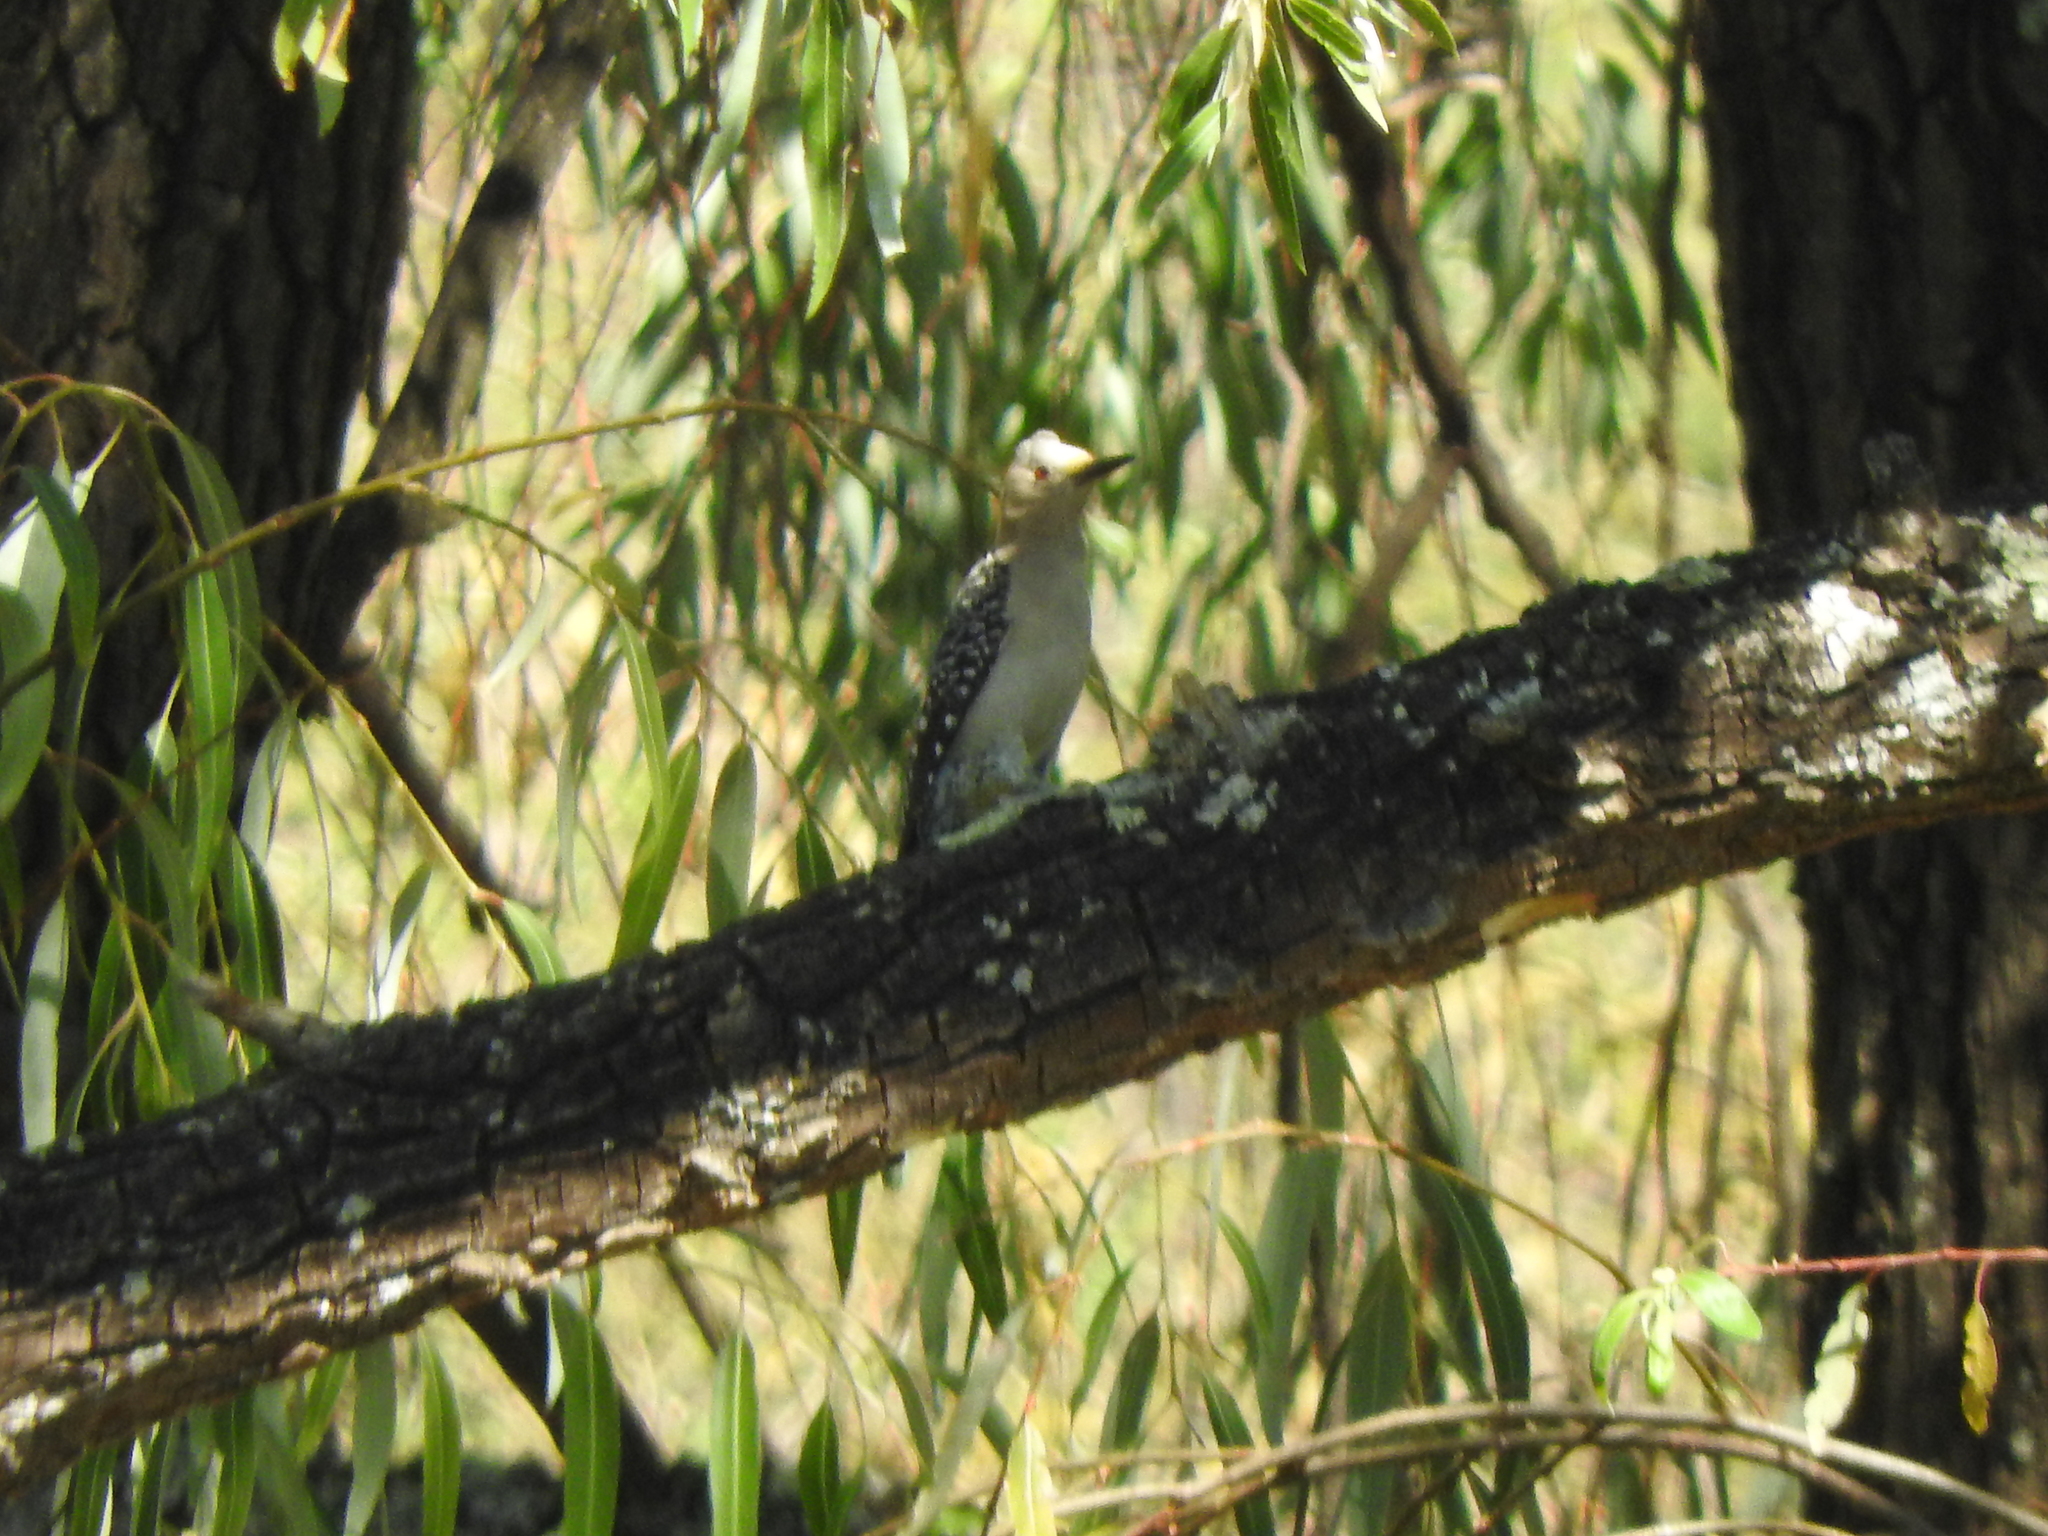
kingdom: Animalia
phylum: Chordata
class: Aves
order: Piciformes
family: Picidae
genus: Melanerpes
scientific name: Melanerpes aurifrons
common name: Golden-fronted woodpecker
